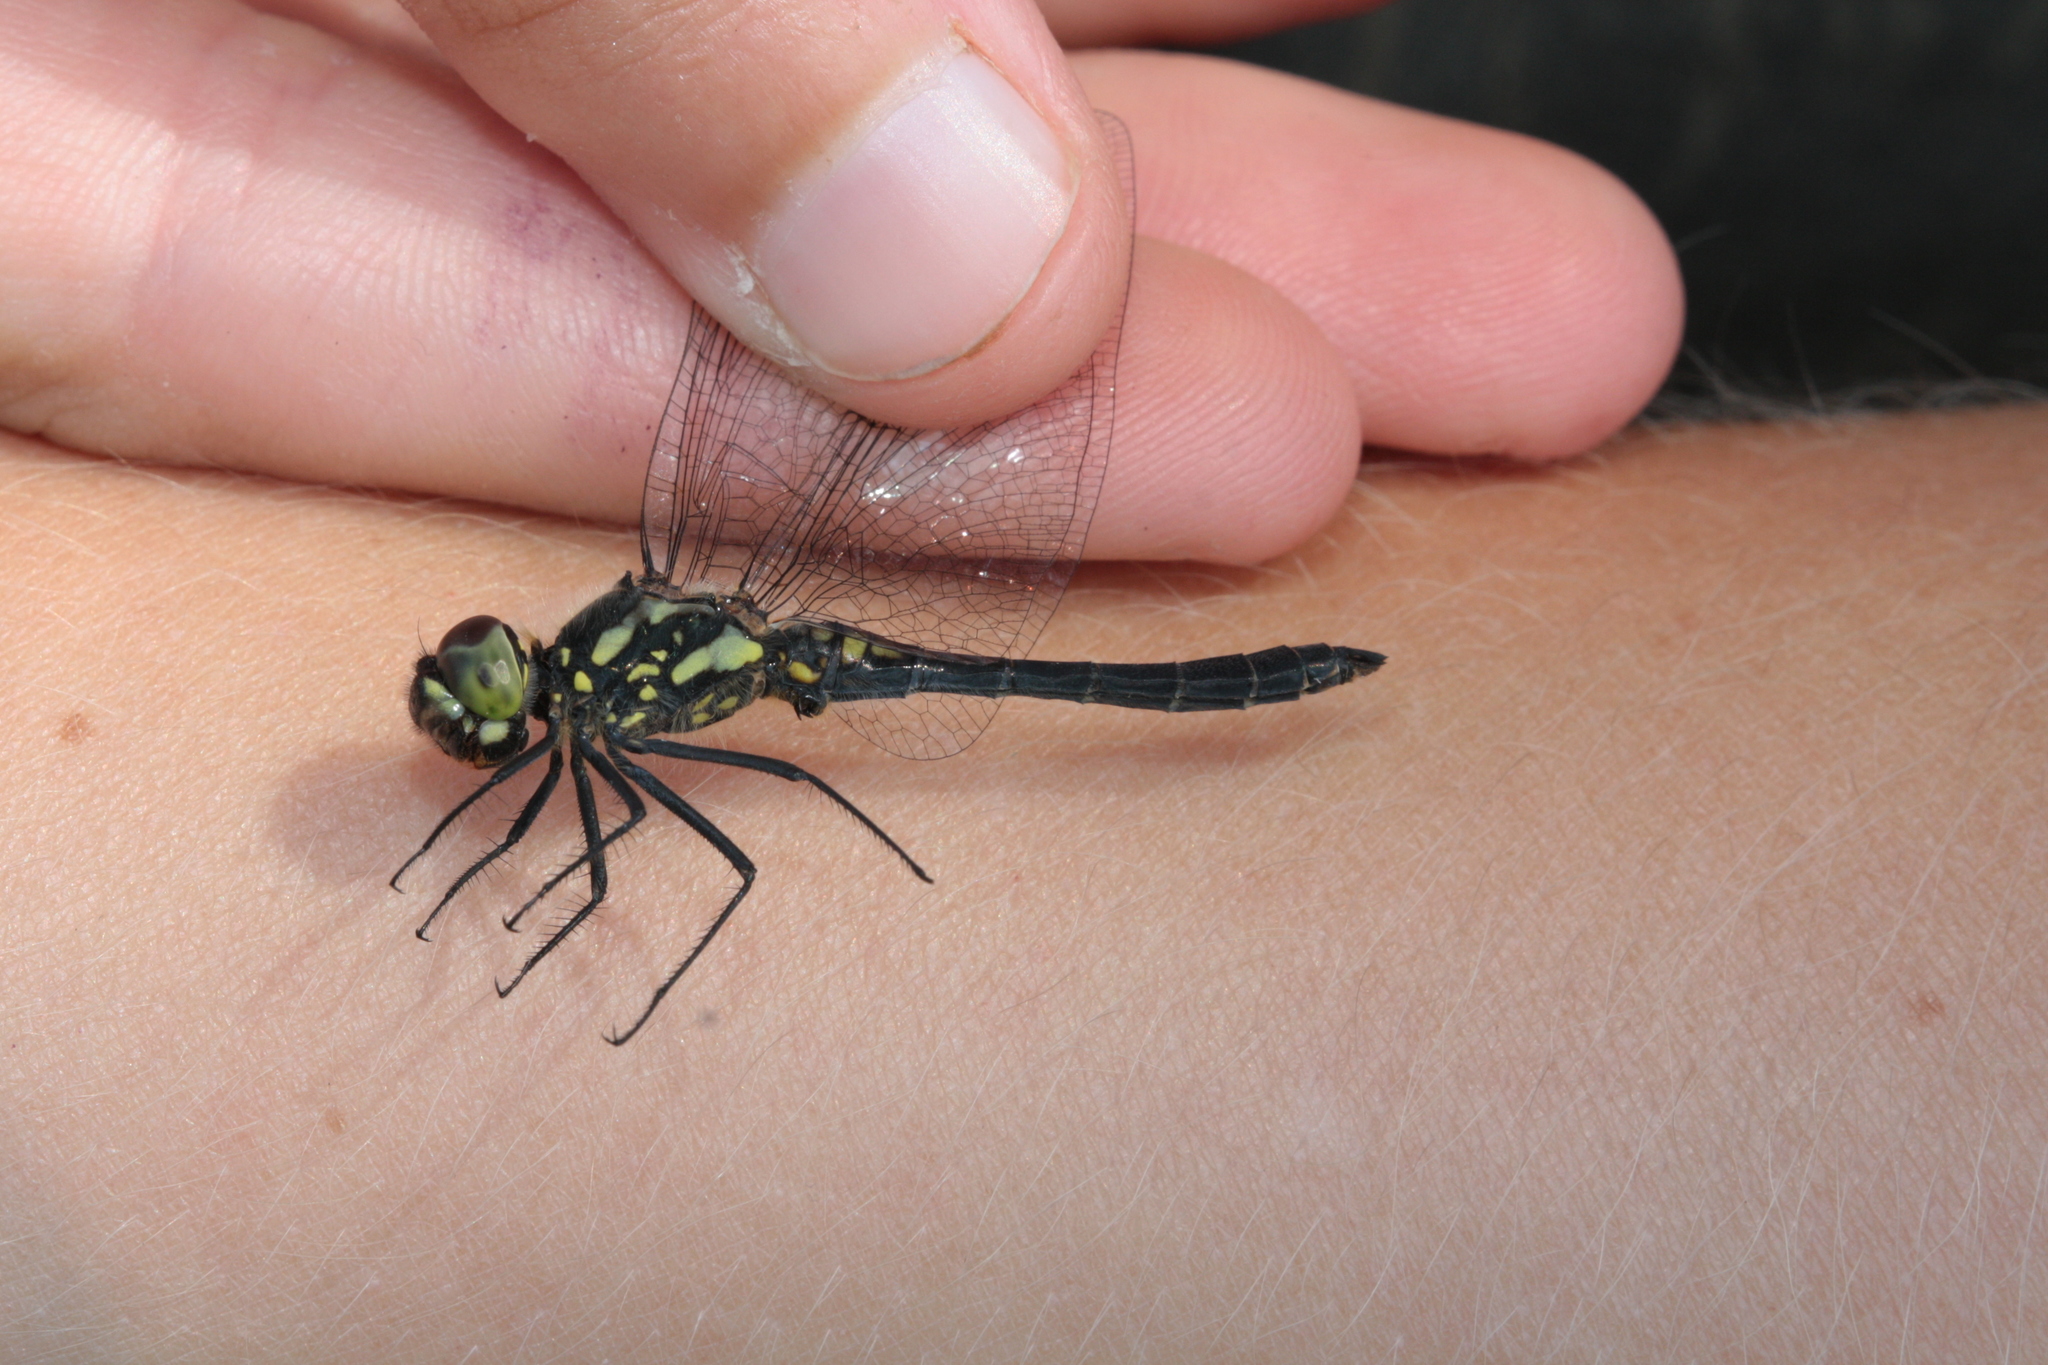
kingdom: Animalia
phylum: Arthropoda
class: Insecta
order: Odonata
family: Aeshnidae
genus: Aeshna
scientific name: Aeshna juncea
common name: Moorland hawker
